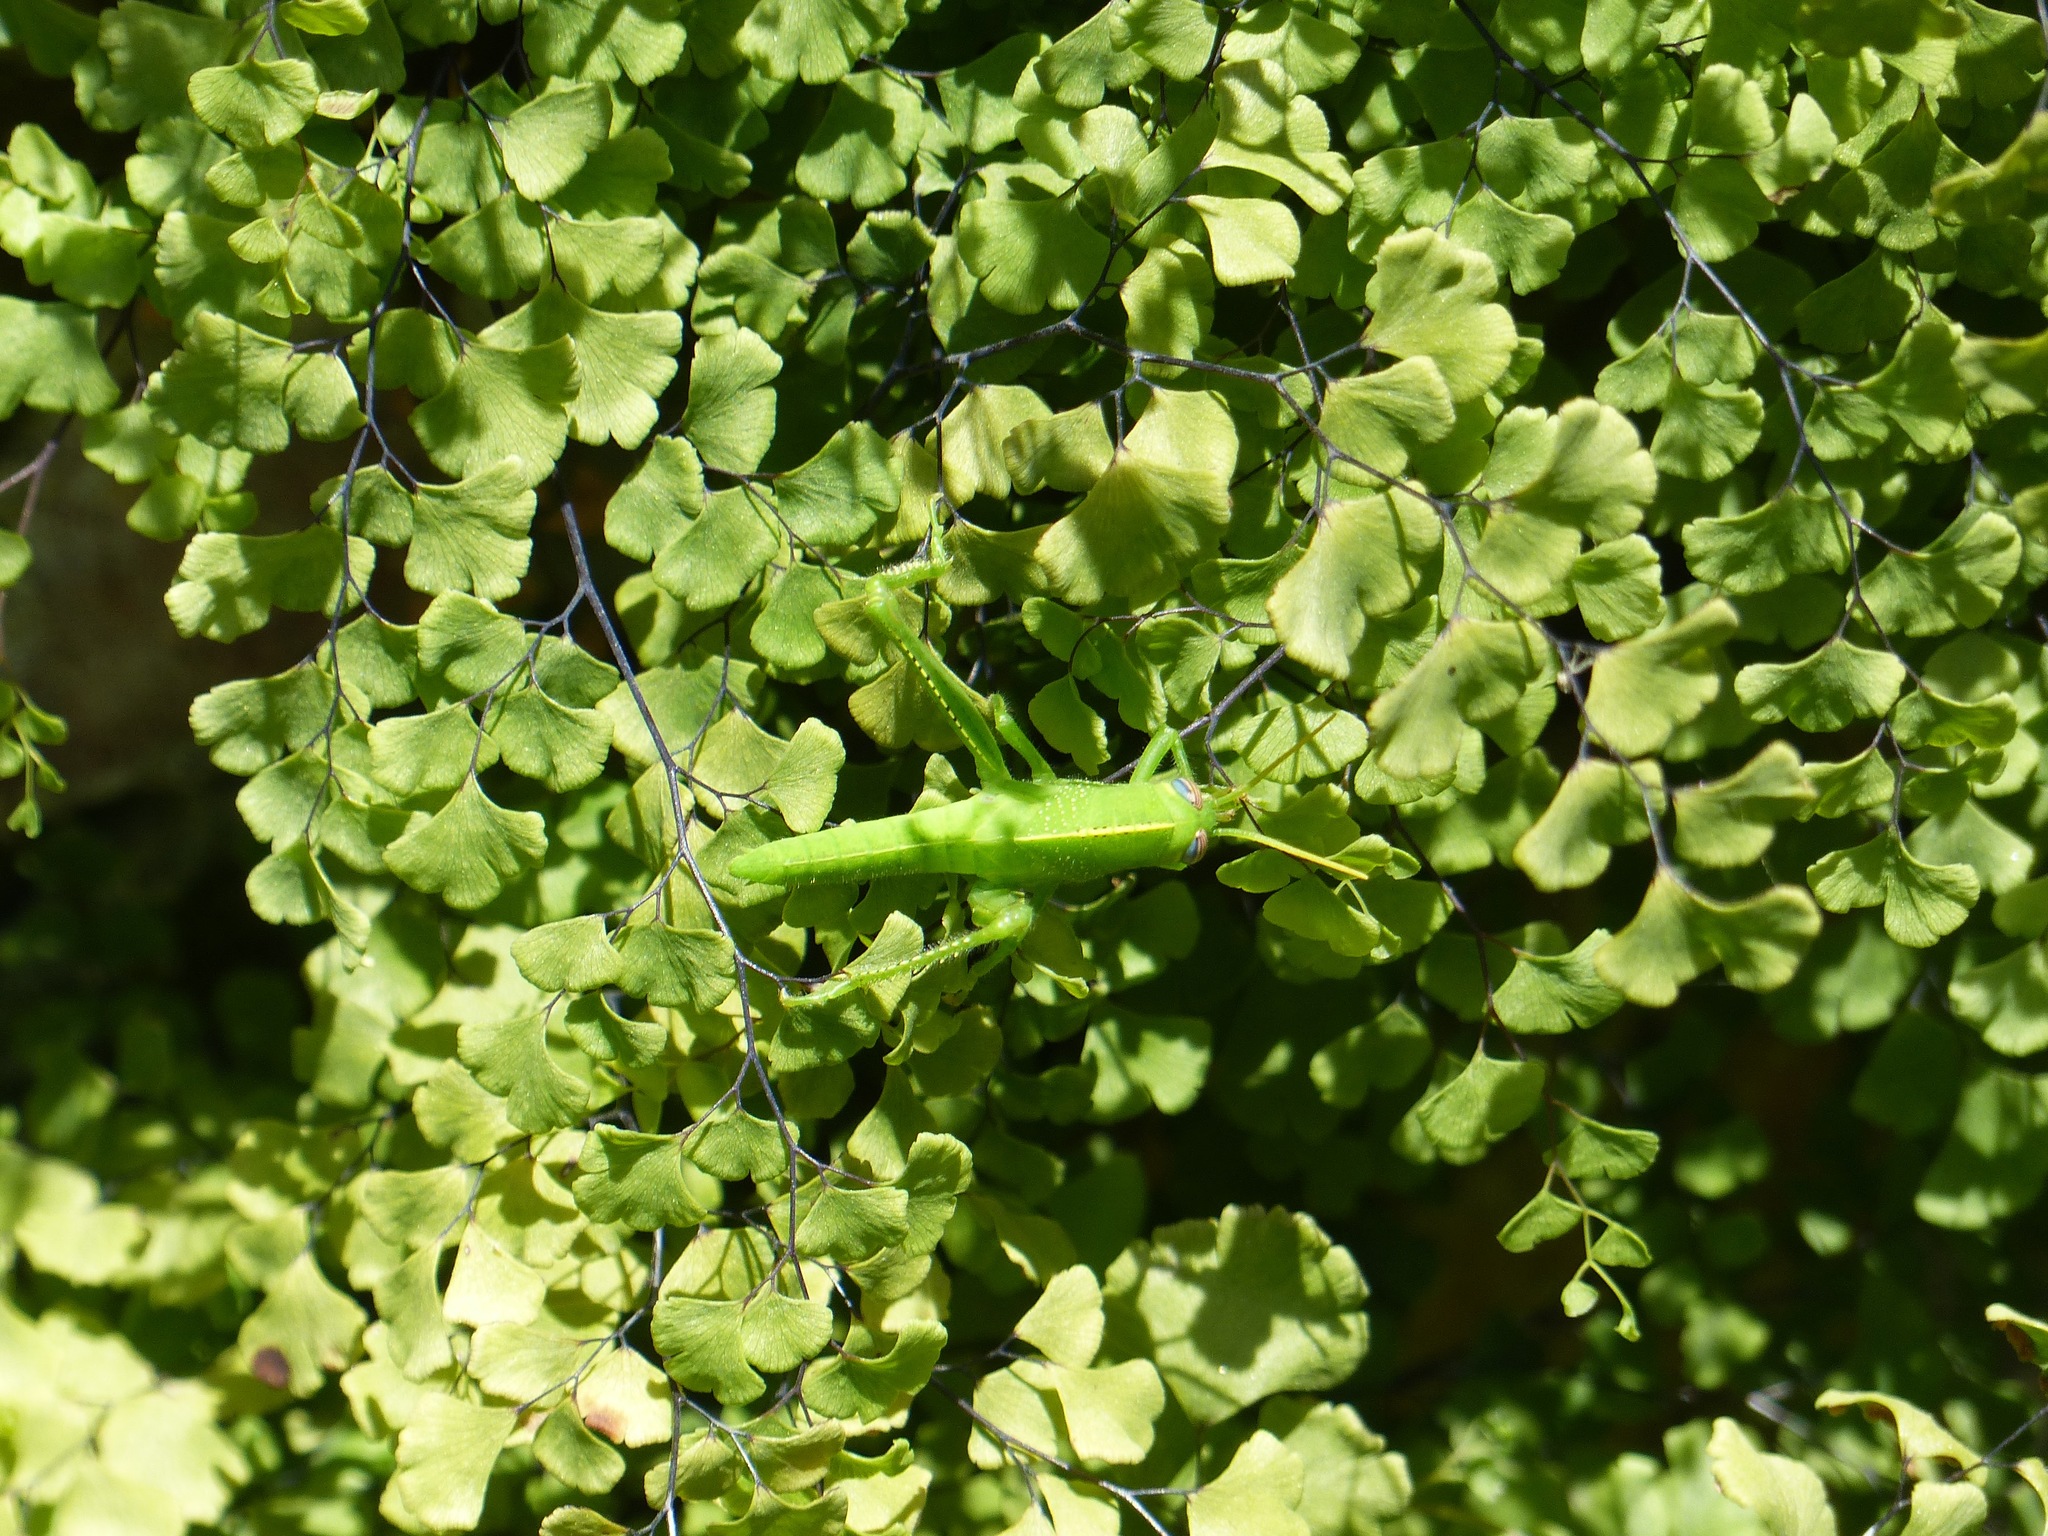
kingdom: Animalia
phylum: Arthropoda
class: Insecta
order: Orthoptera
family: Acrididae
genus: Anacridium
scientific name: Anacridium aegyptium
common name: Egyptian grasshopper
